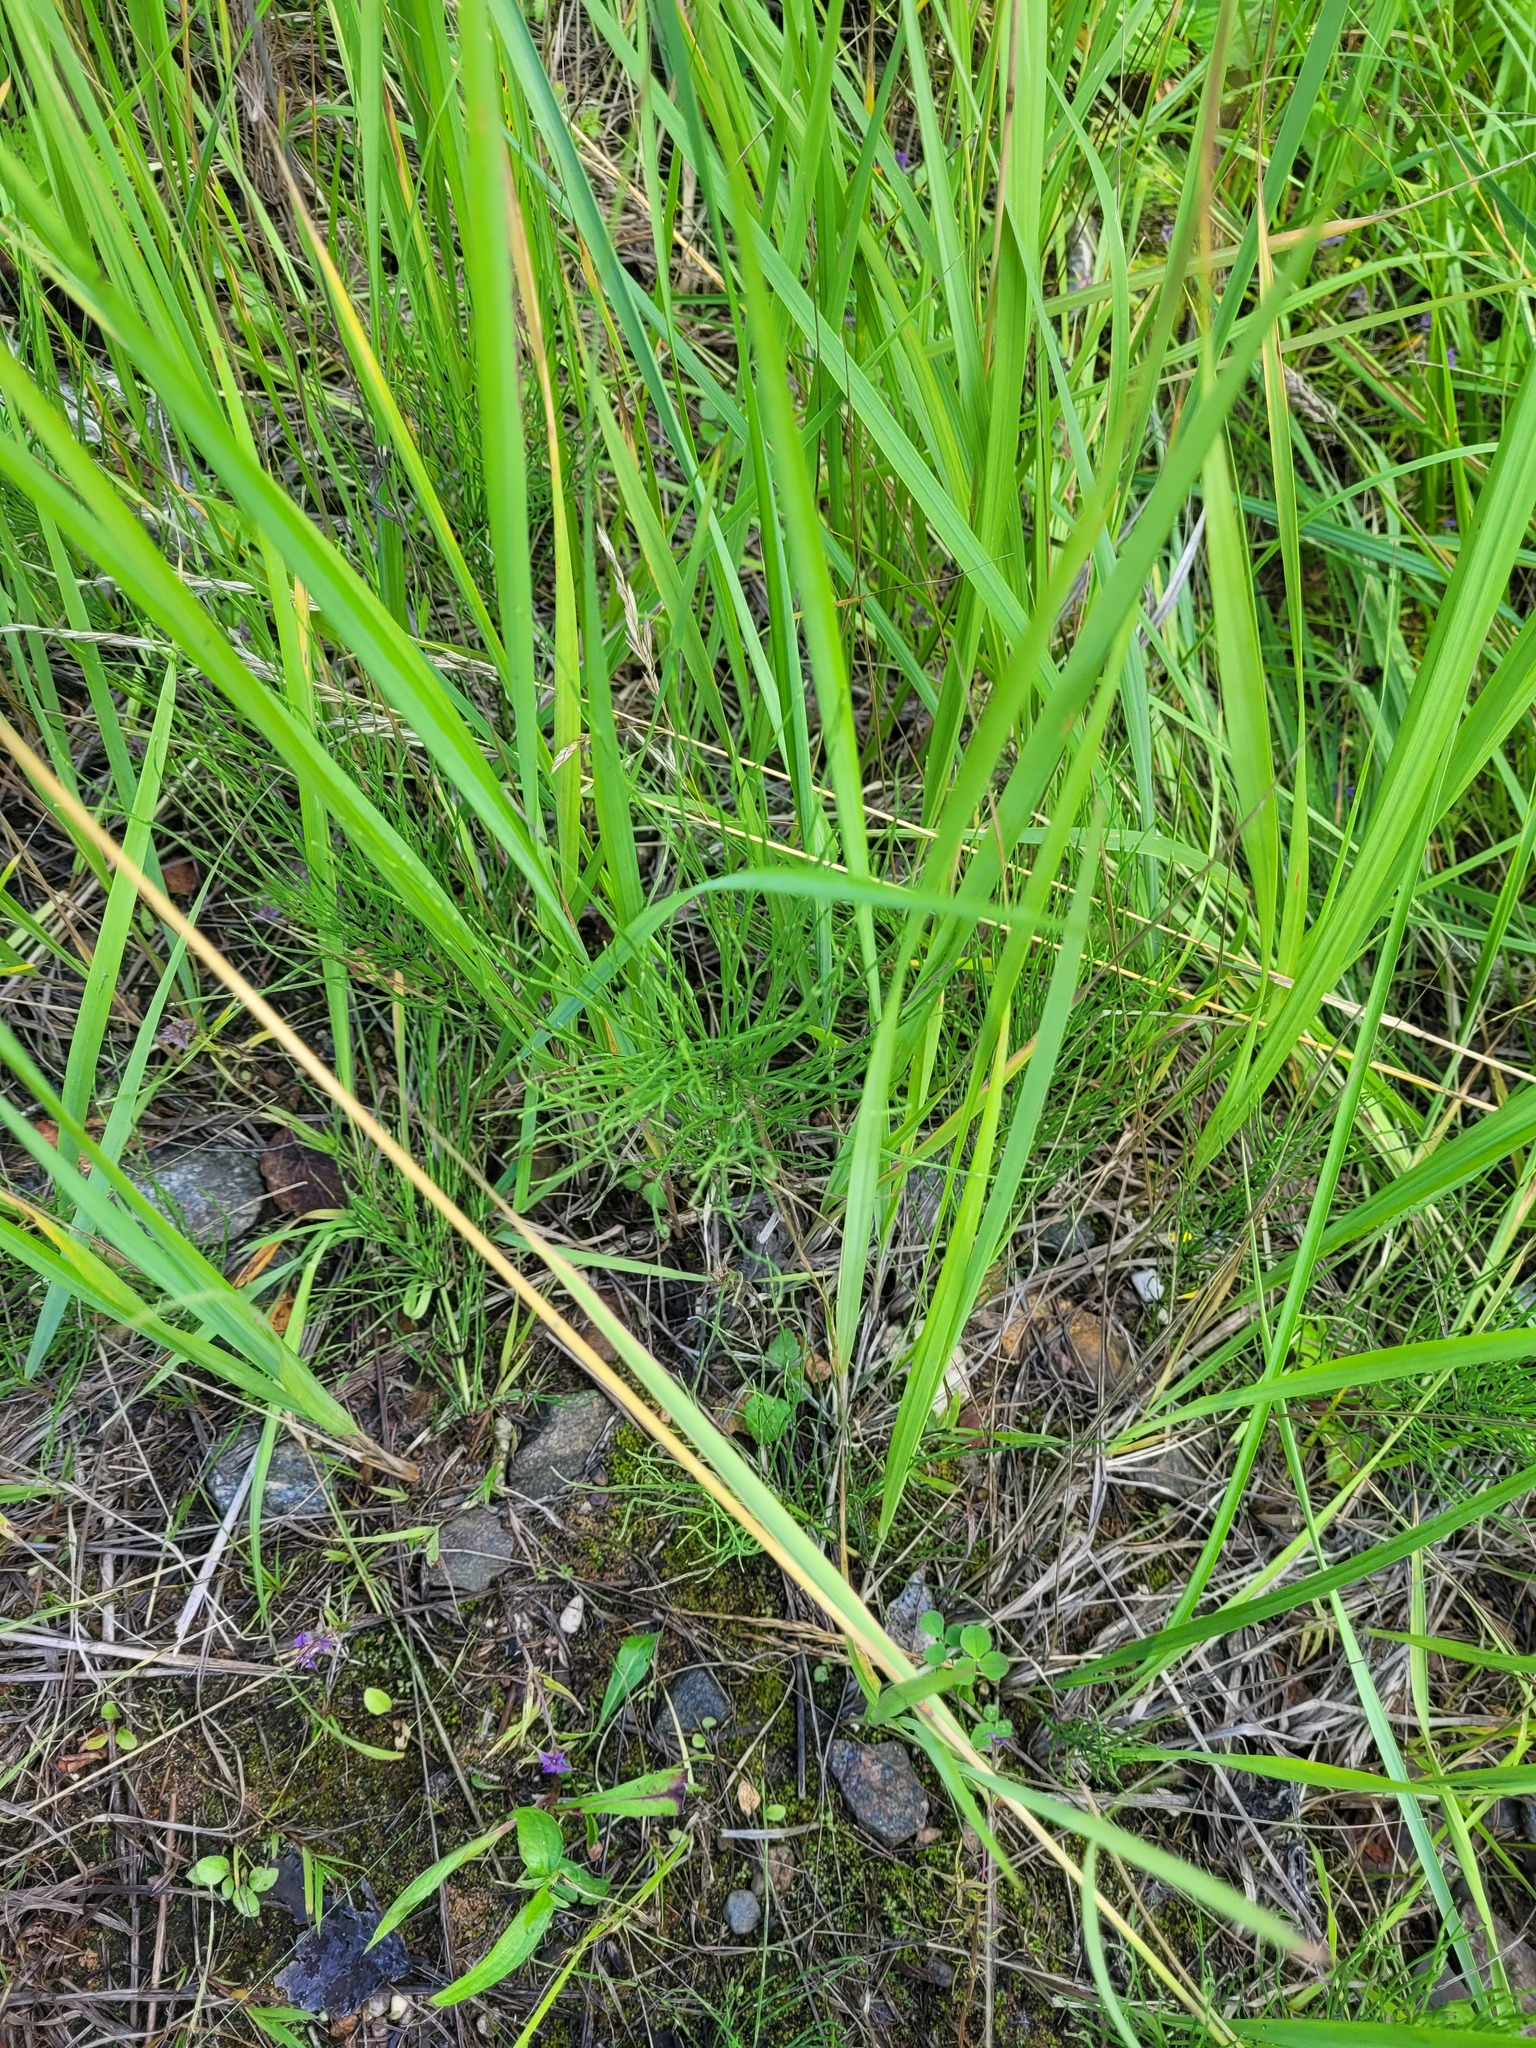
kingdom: Plantae
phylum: Tracheophyta
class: Polypodiopsida
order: Equisetales
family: Equisetaceae
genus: Equisetum
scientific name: Equisetum arvense
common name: Field horsetail
